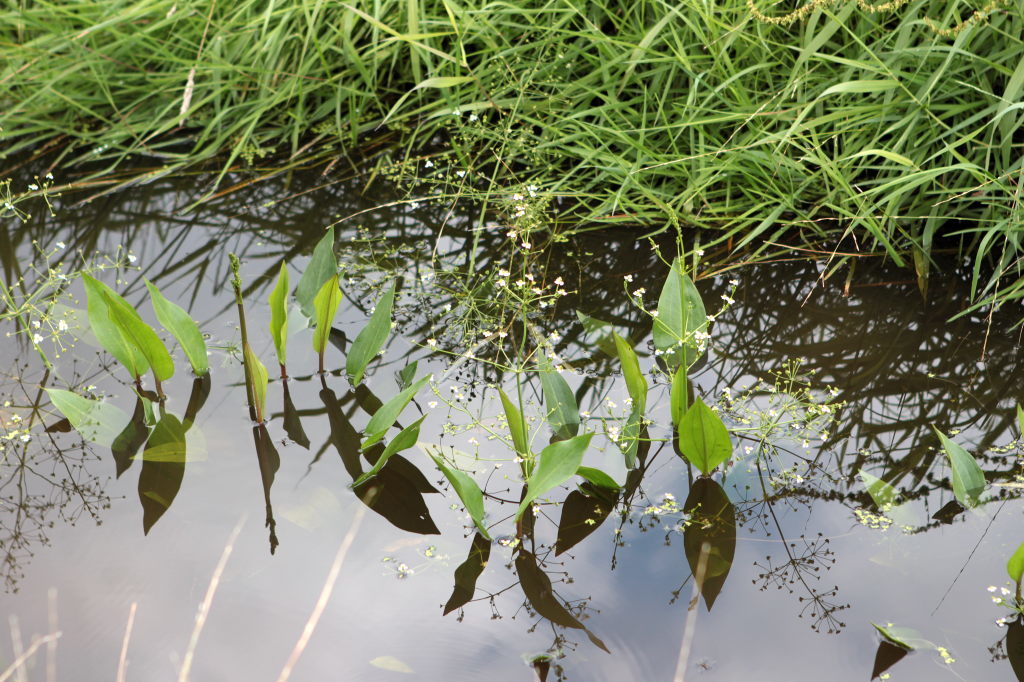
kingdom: Plantae
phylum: Tracheophyta
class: Liliopsida
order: Alismatales
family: Alismataceae
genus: Alisma
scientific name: Alisma plantago-aquatica
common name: Water-plantain
